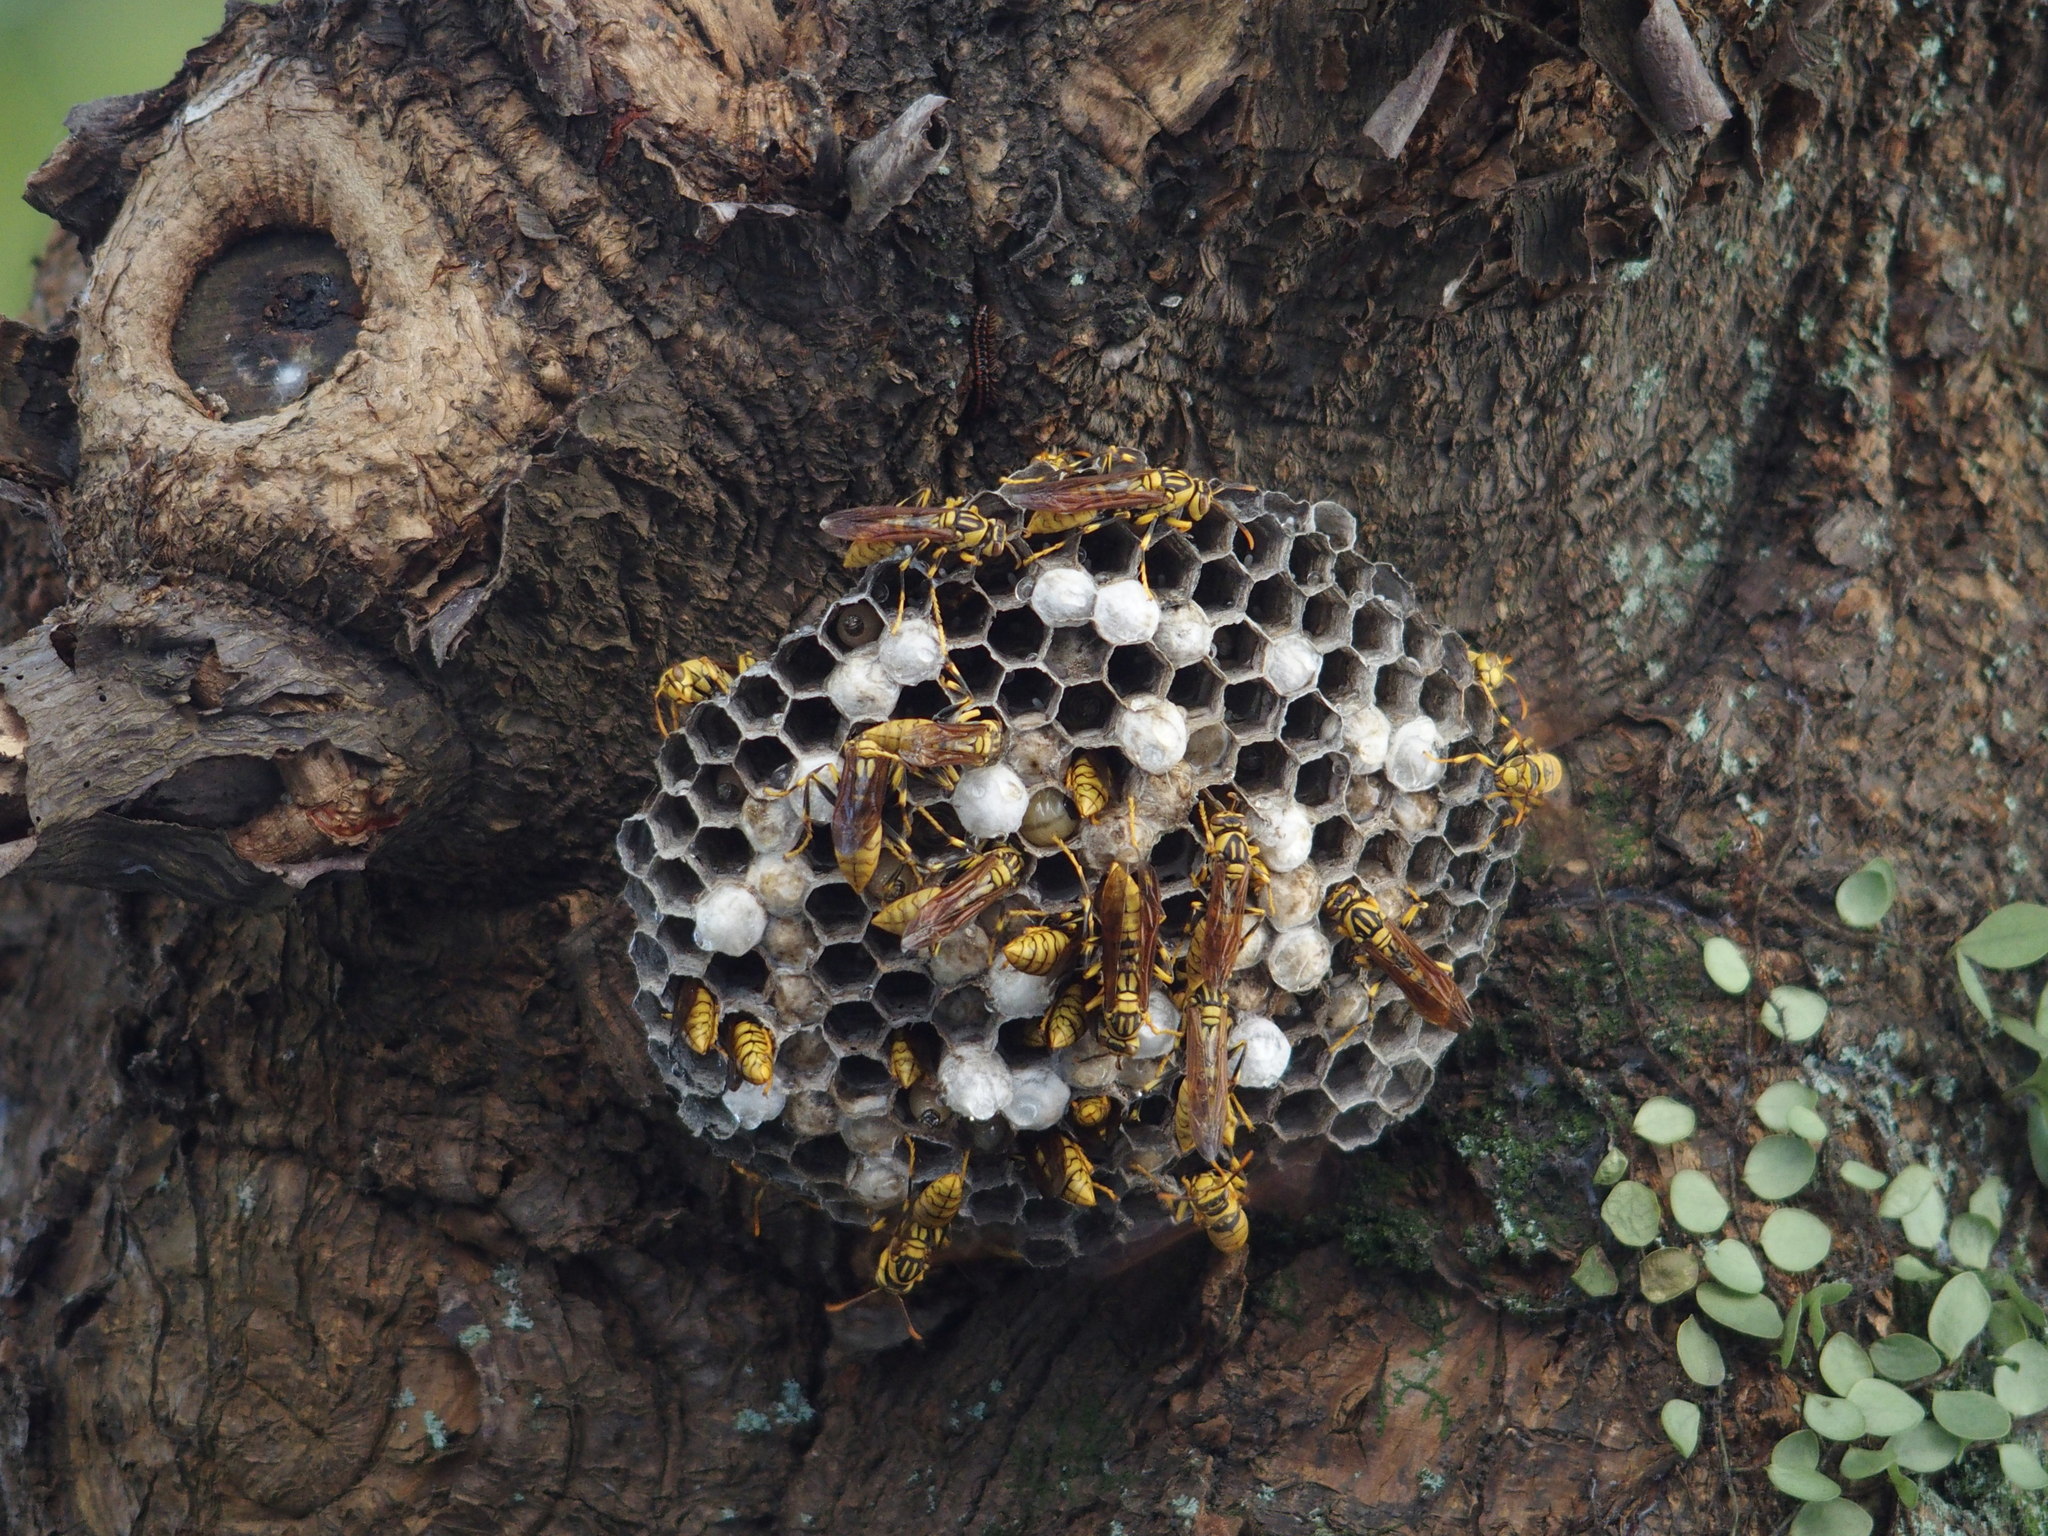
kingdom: Animalia
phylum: Arthropoda
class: Insecta
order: Hymenoptera
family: Eumenidae
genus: Polistes
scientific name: Polistes rothneyi
